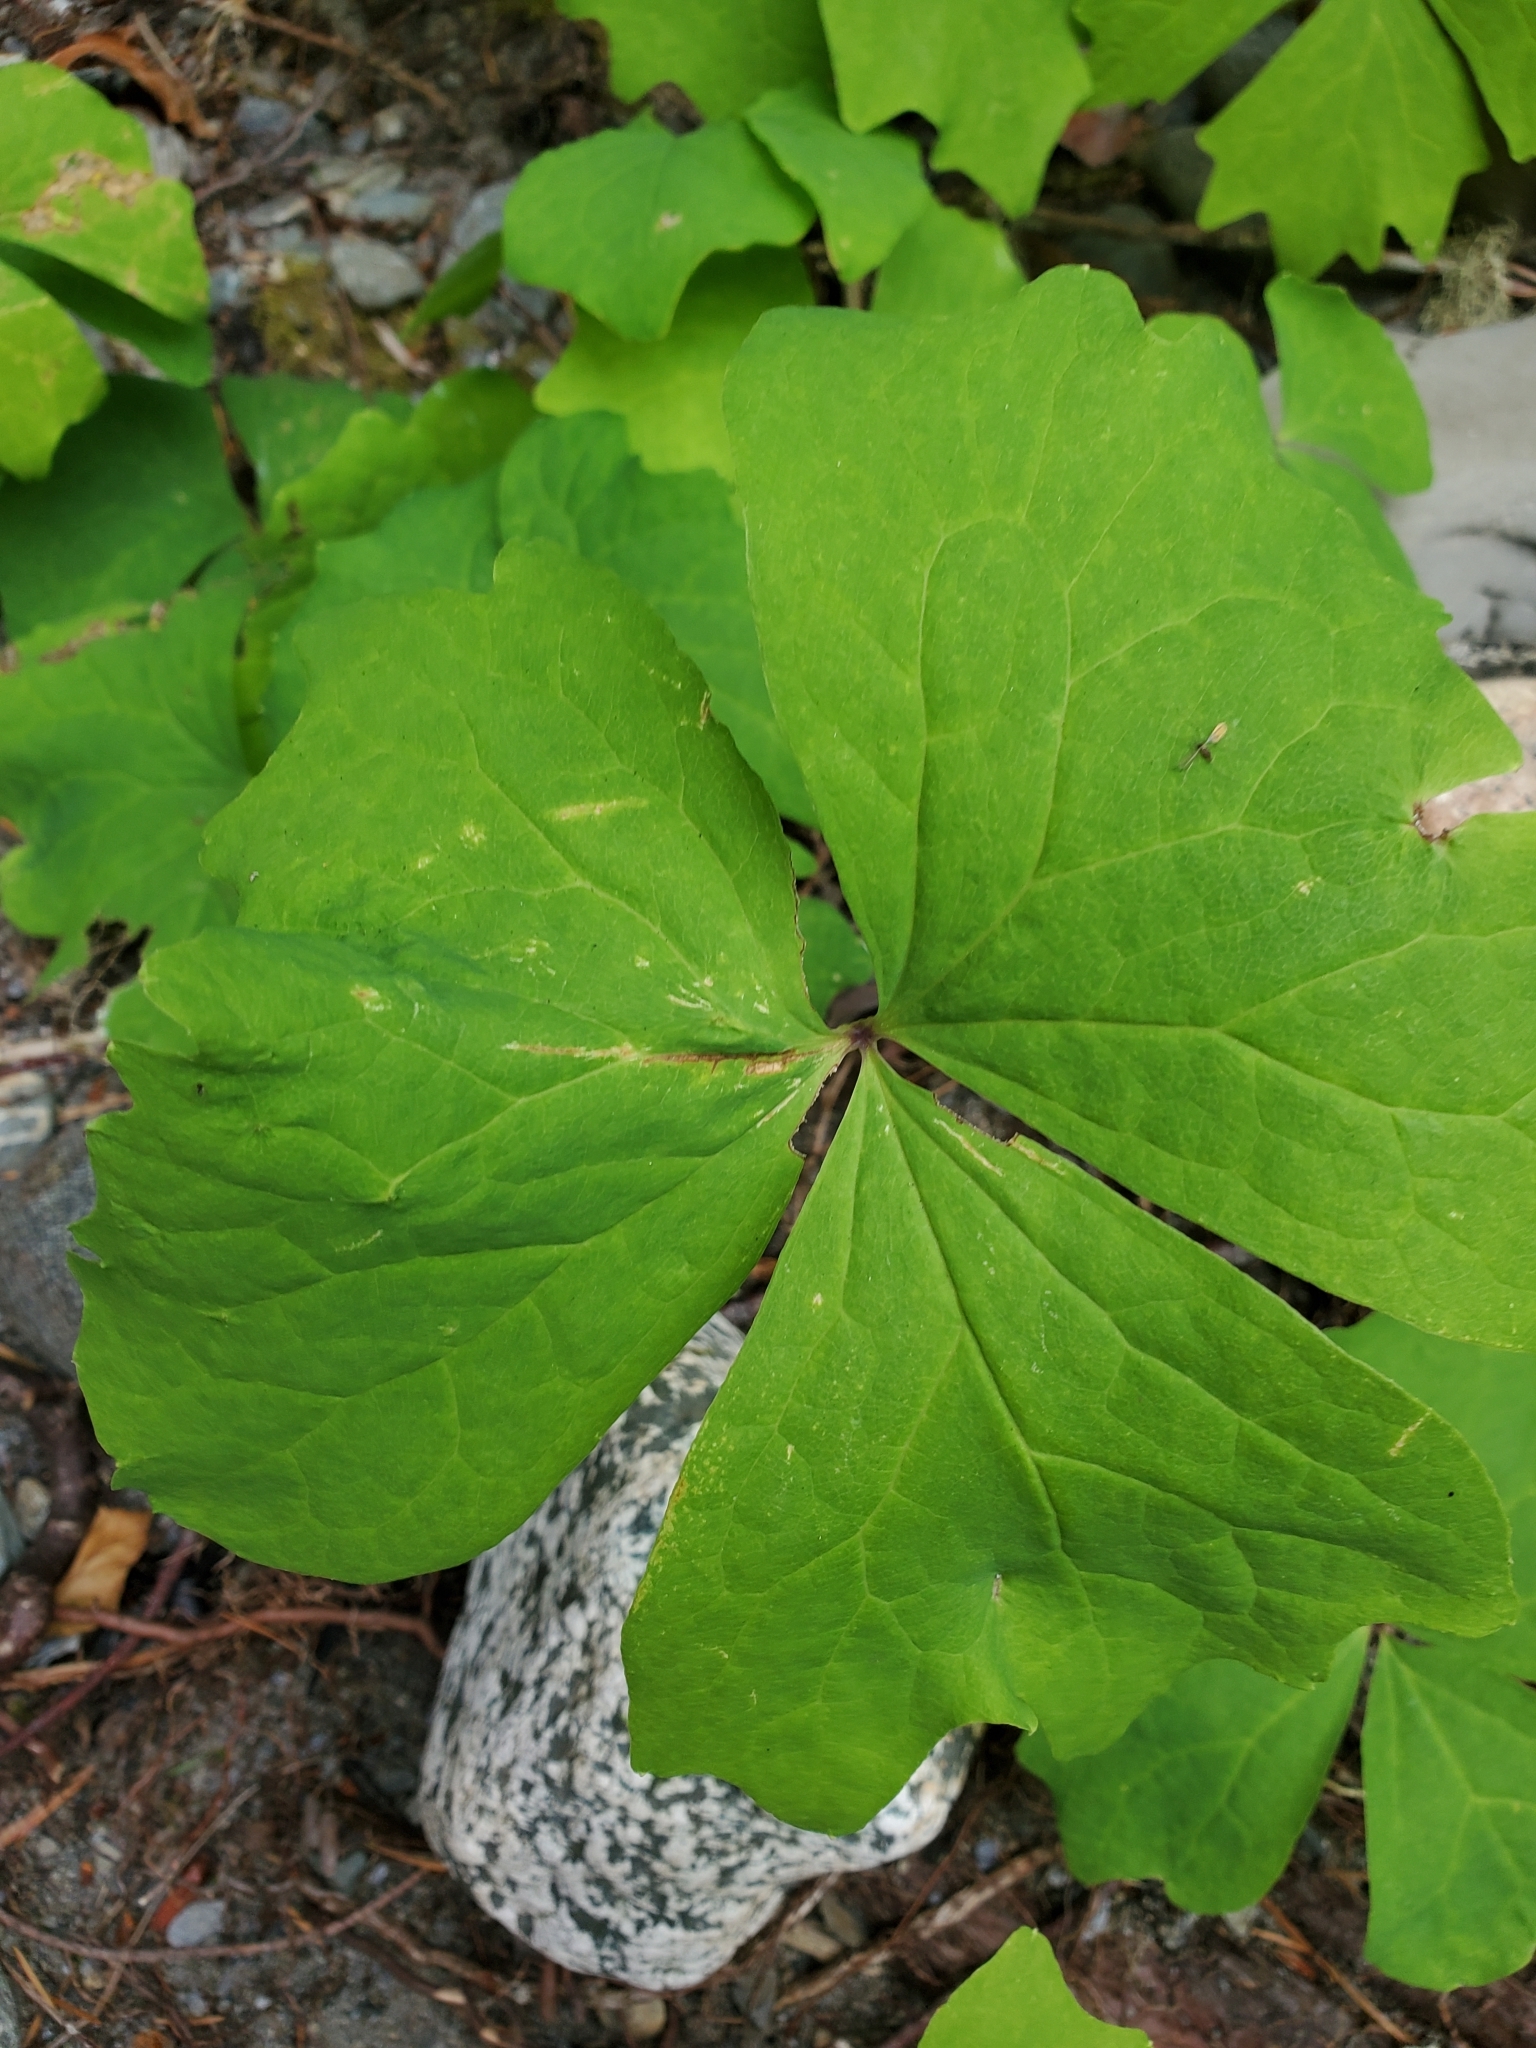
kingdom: Plantae
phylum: Tracheophyta
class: Magnoliopsida
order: Ranunculales
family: Berberidaceae
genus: Achlys
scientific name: Achlys triphylla
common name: Vanilla-leaf
